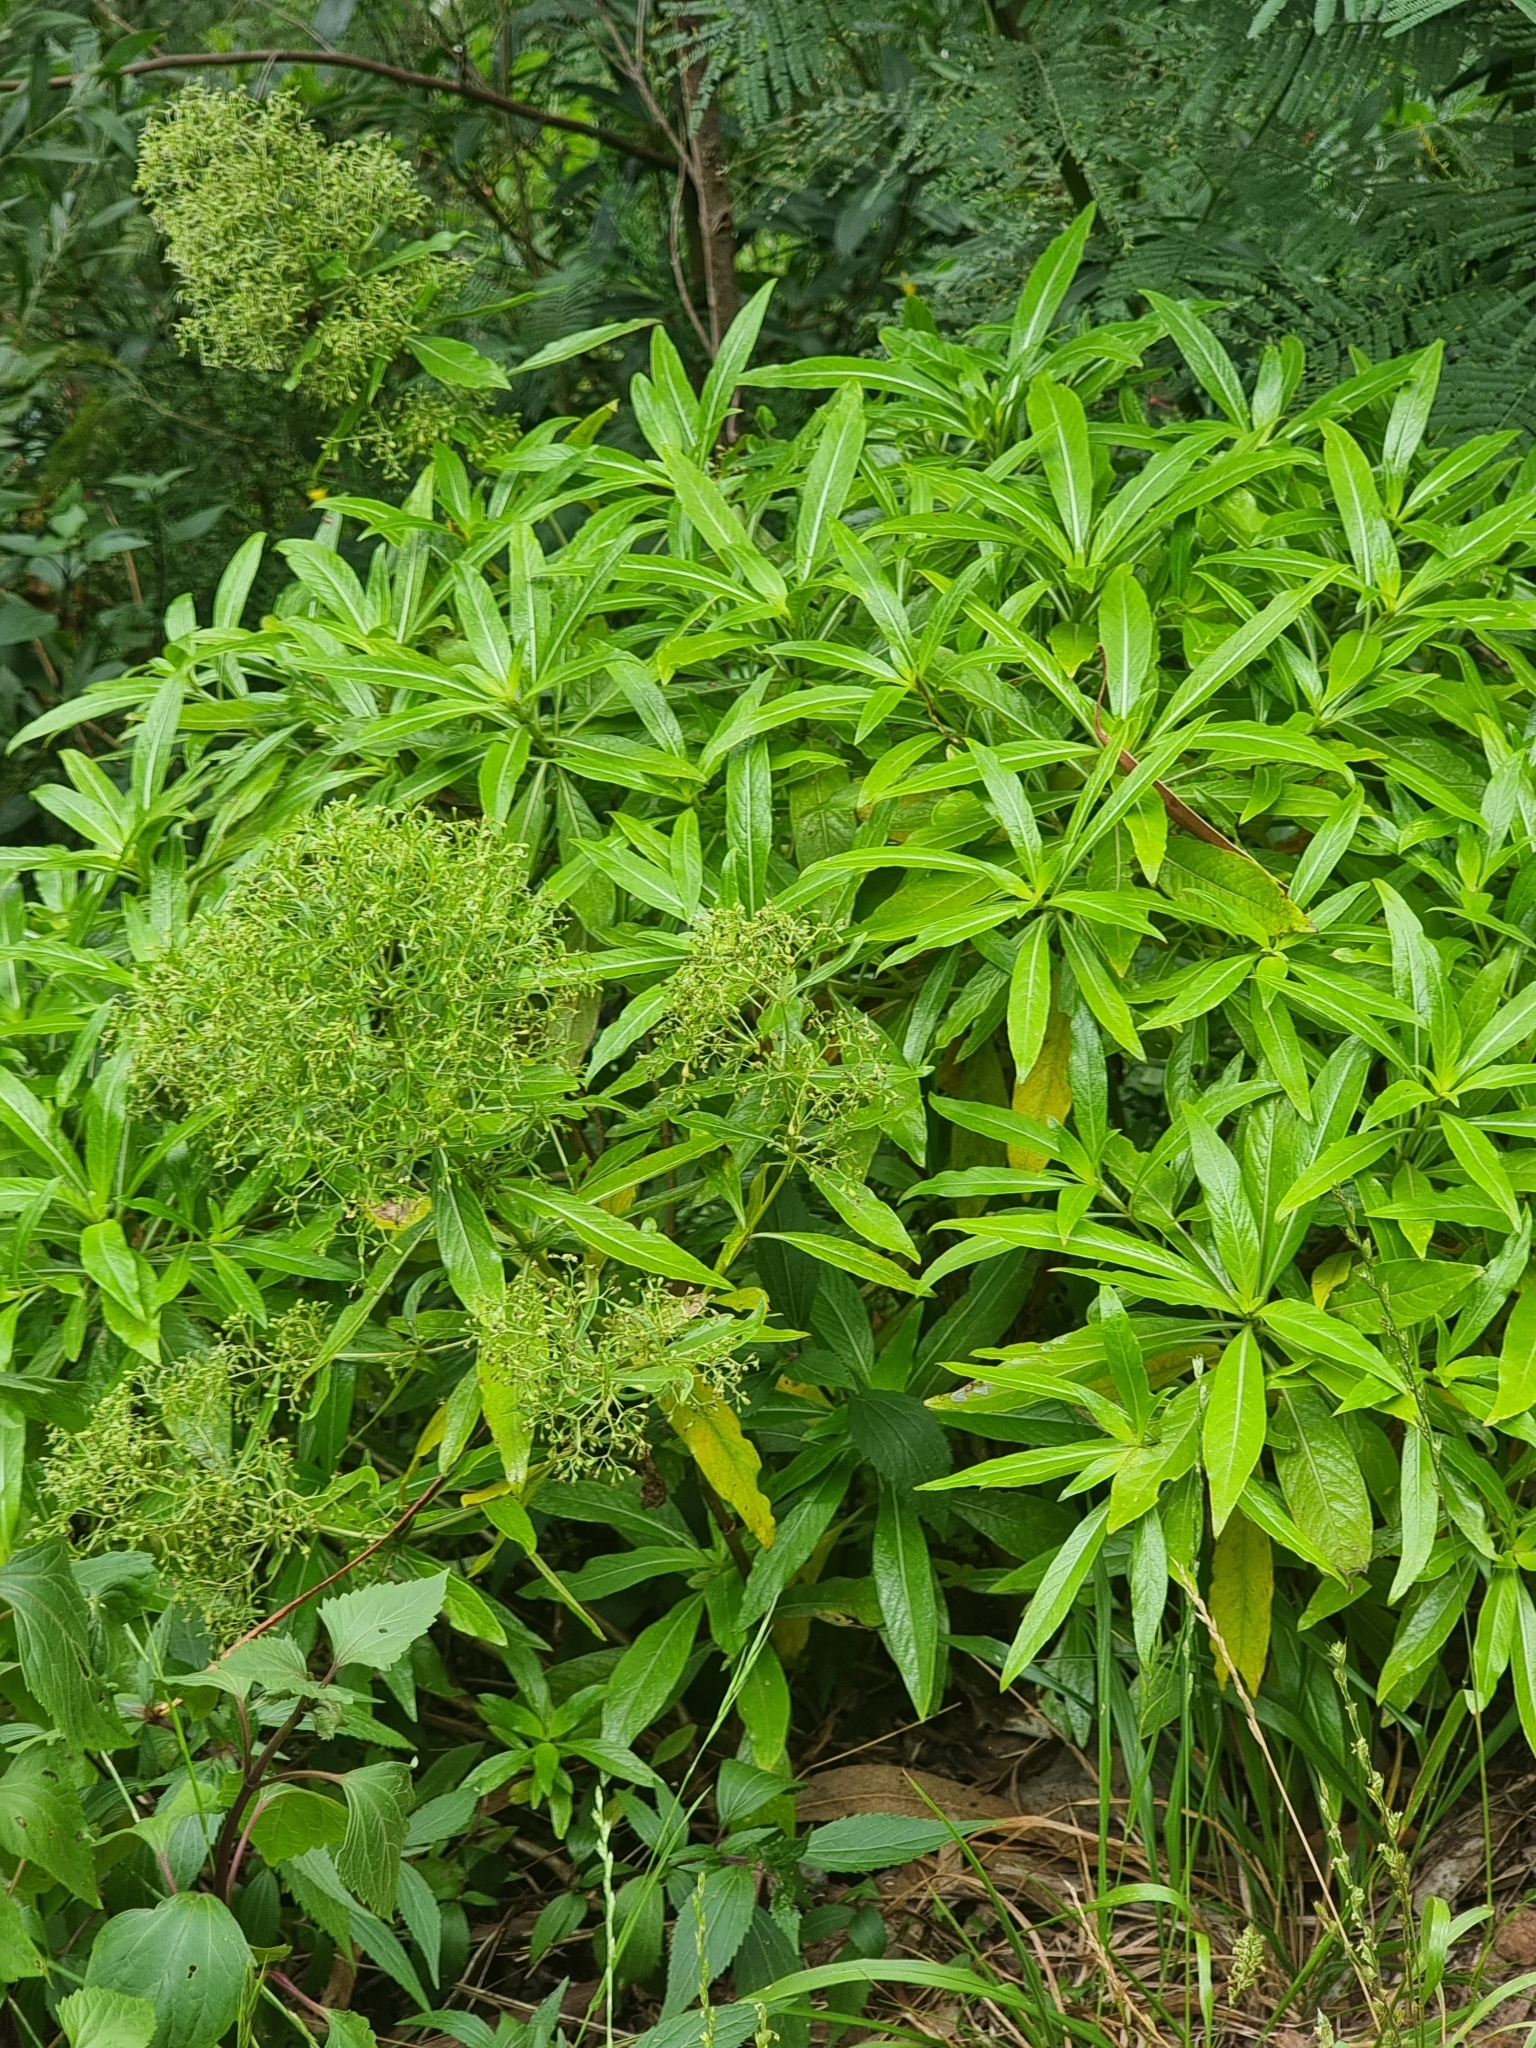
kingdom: Plantae
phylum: Tracheophyta
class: Magnoliopsida
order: Gentianales
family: Rubiaceae
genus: Phyllis
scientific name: Phyllis nobla
